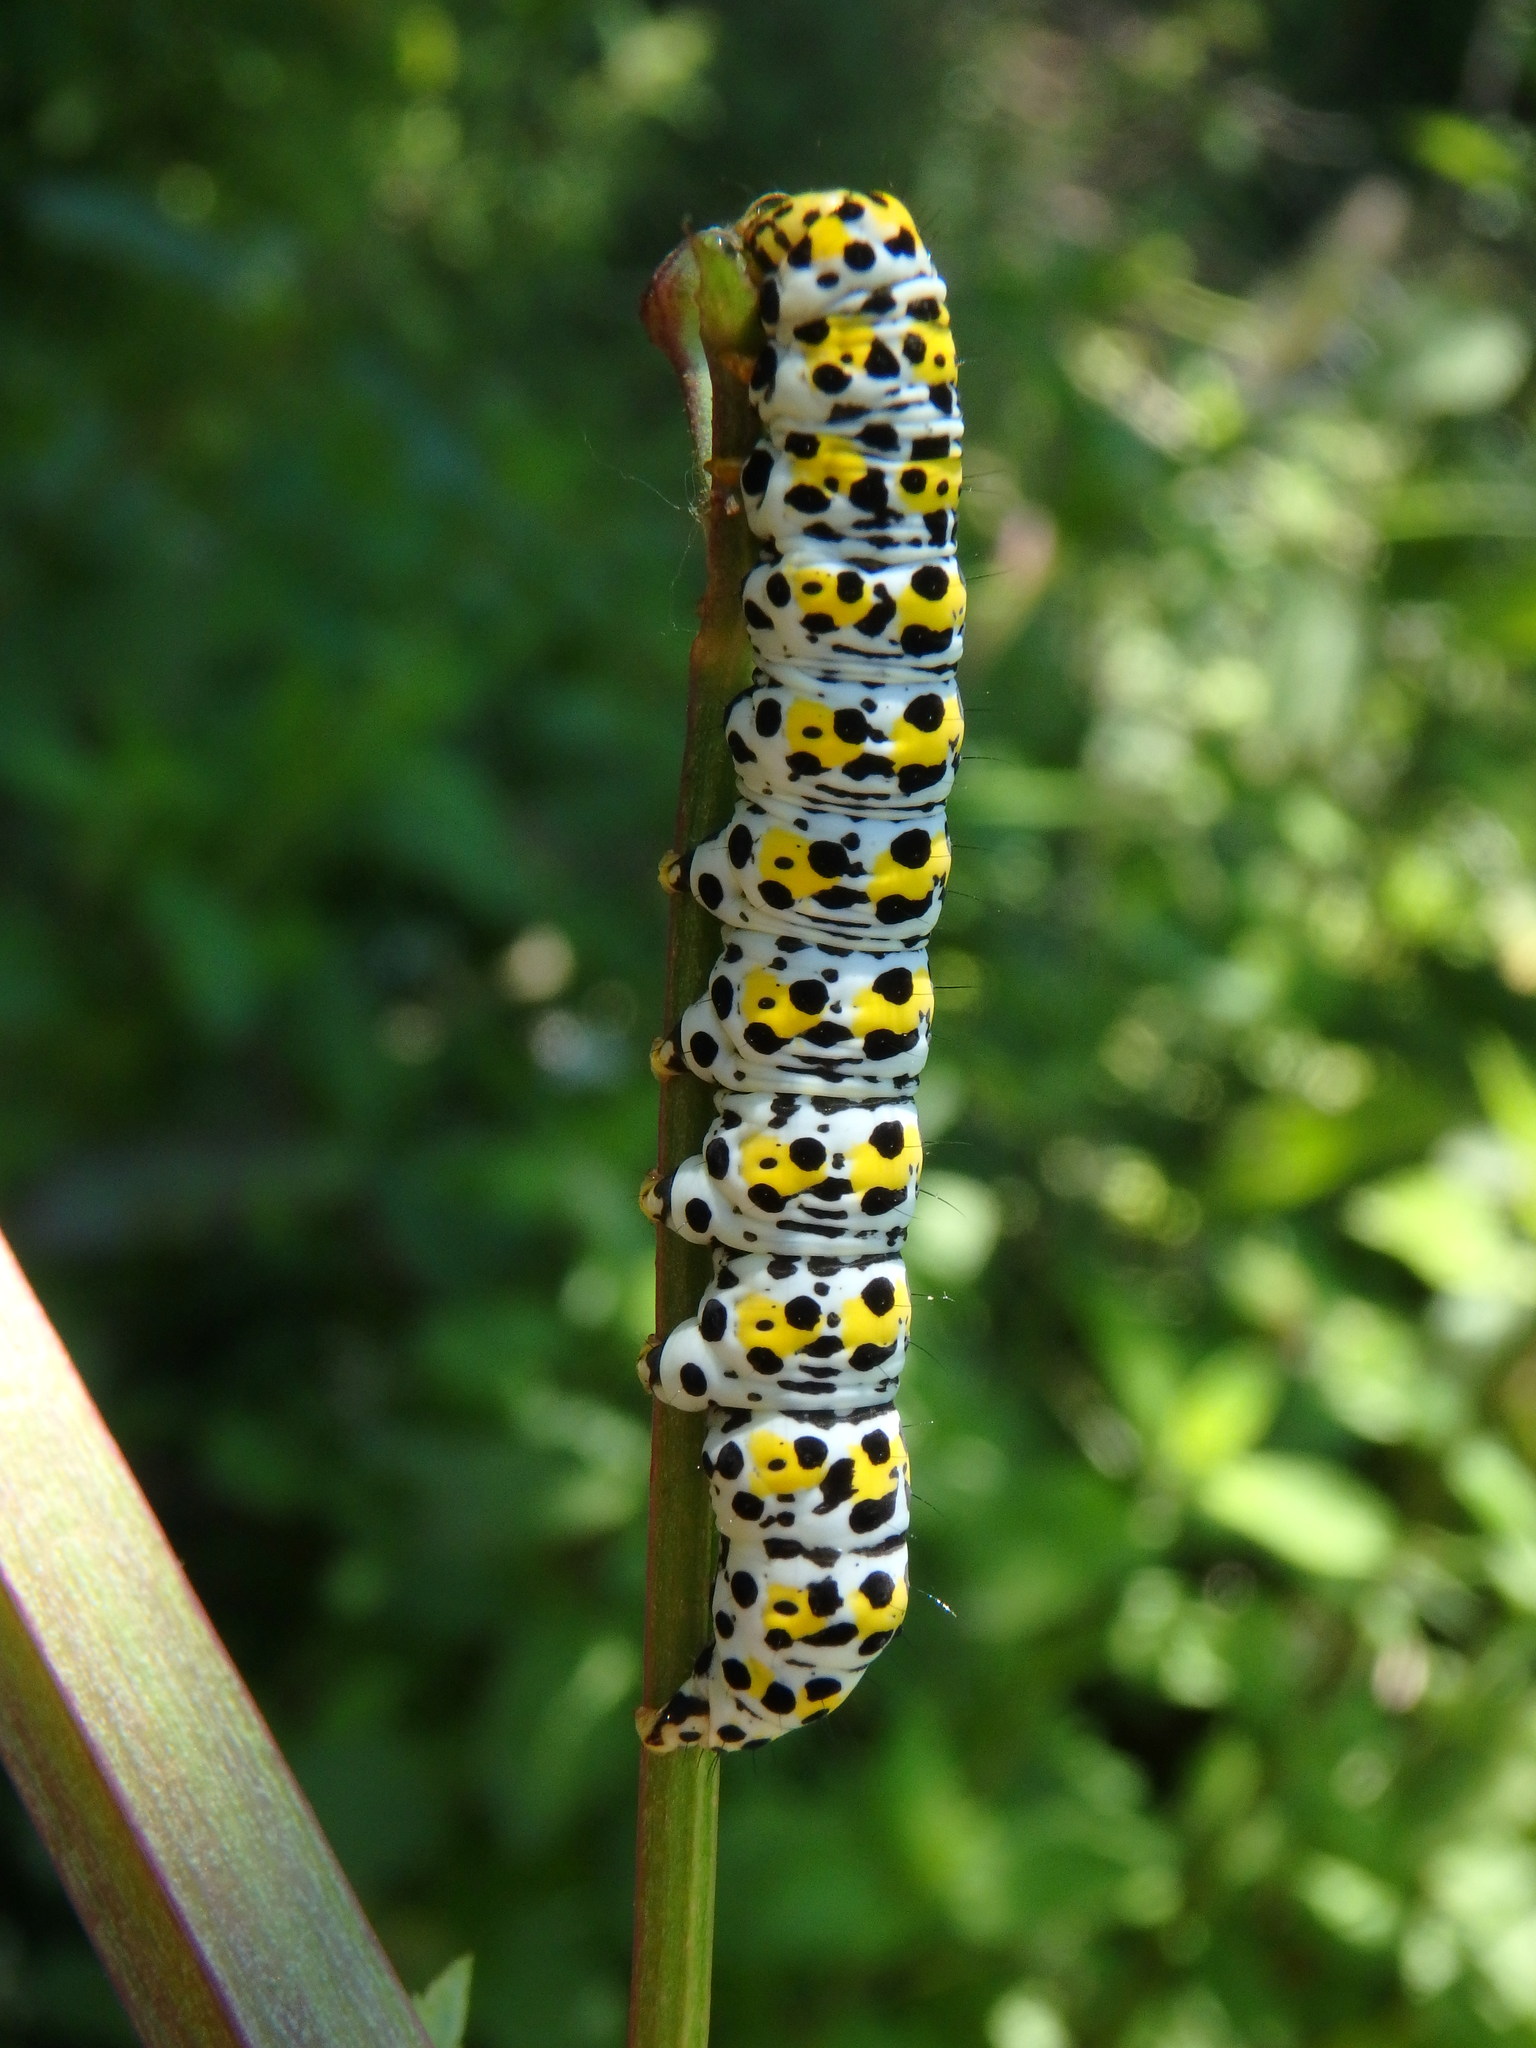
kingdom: Animalia
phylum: Arthropoda
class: Insecta
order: Lepidoptera
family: Noctuidae
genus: Cucullia
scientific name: Cucullia verbasci
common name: Mullein
